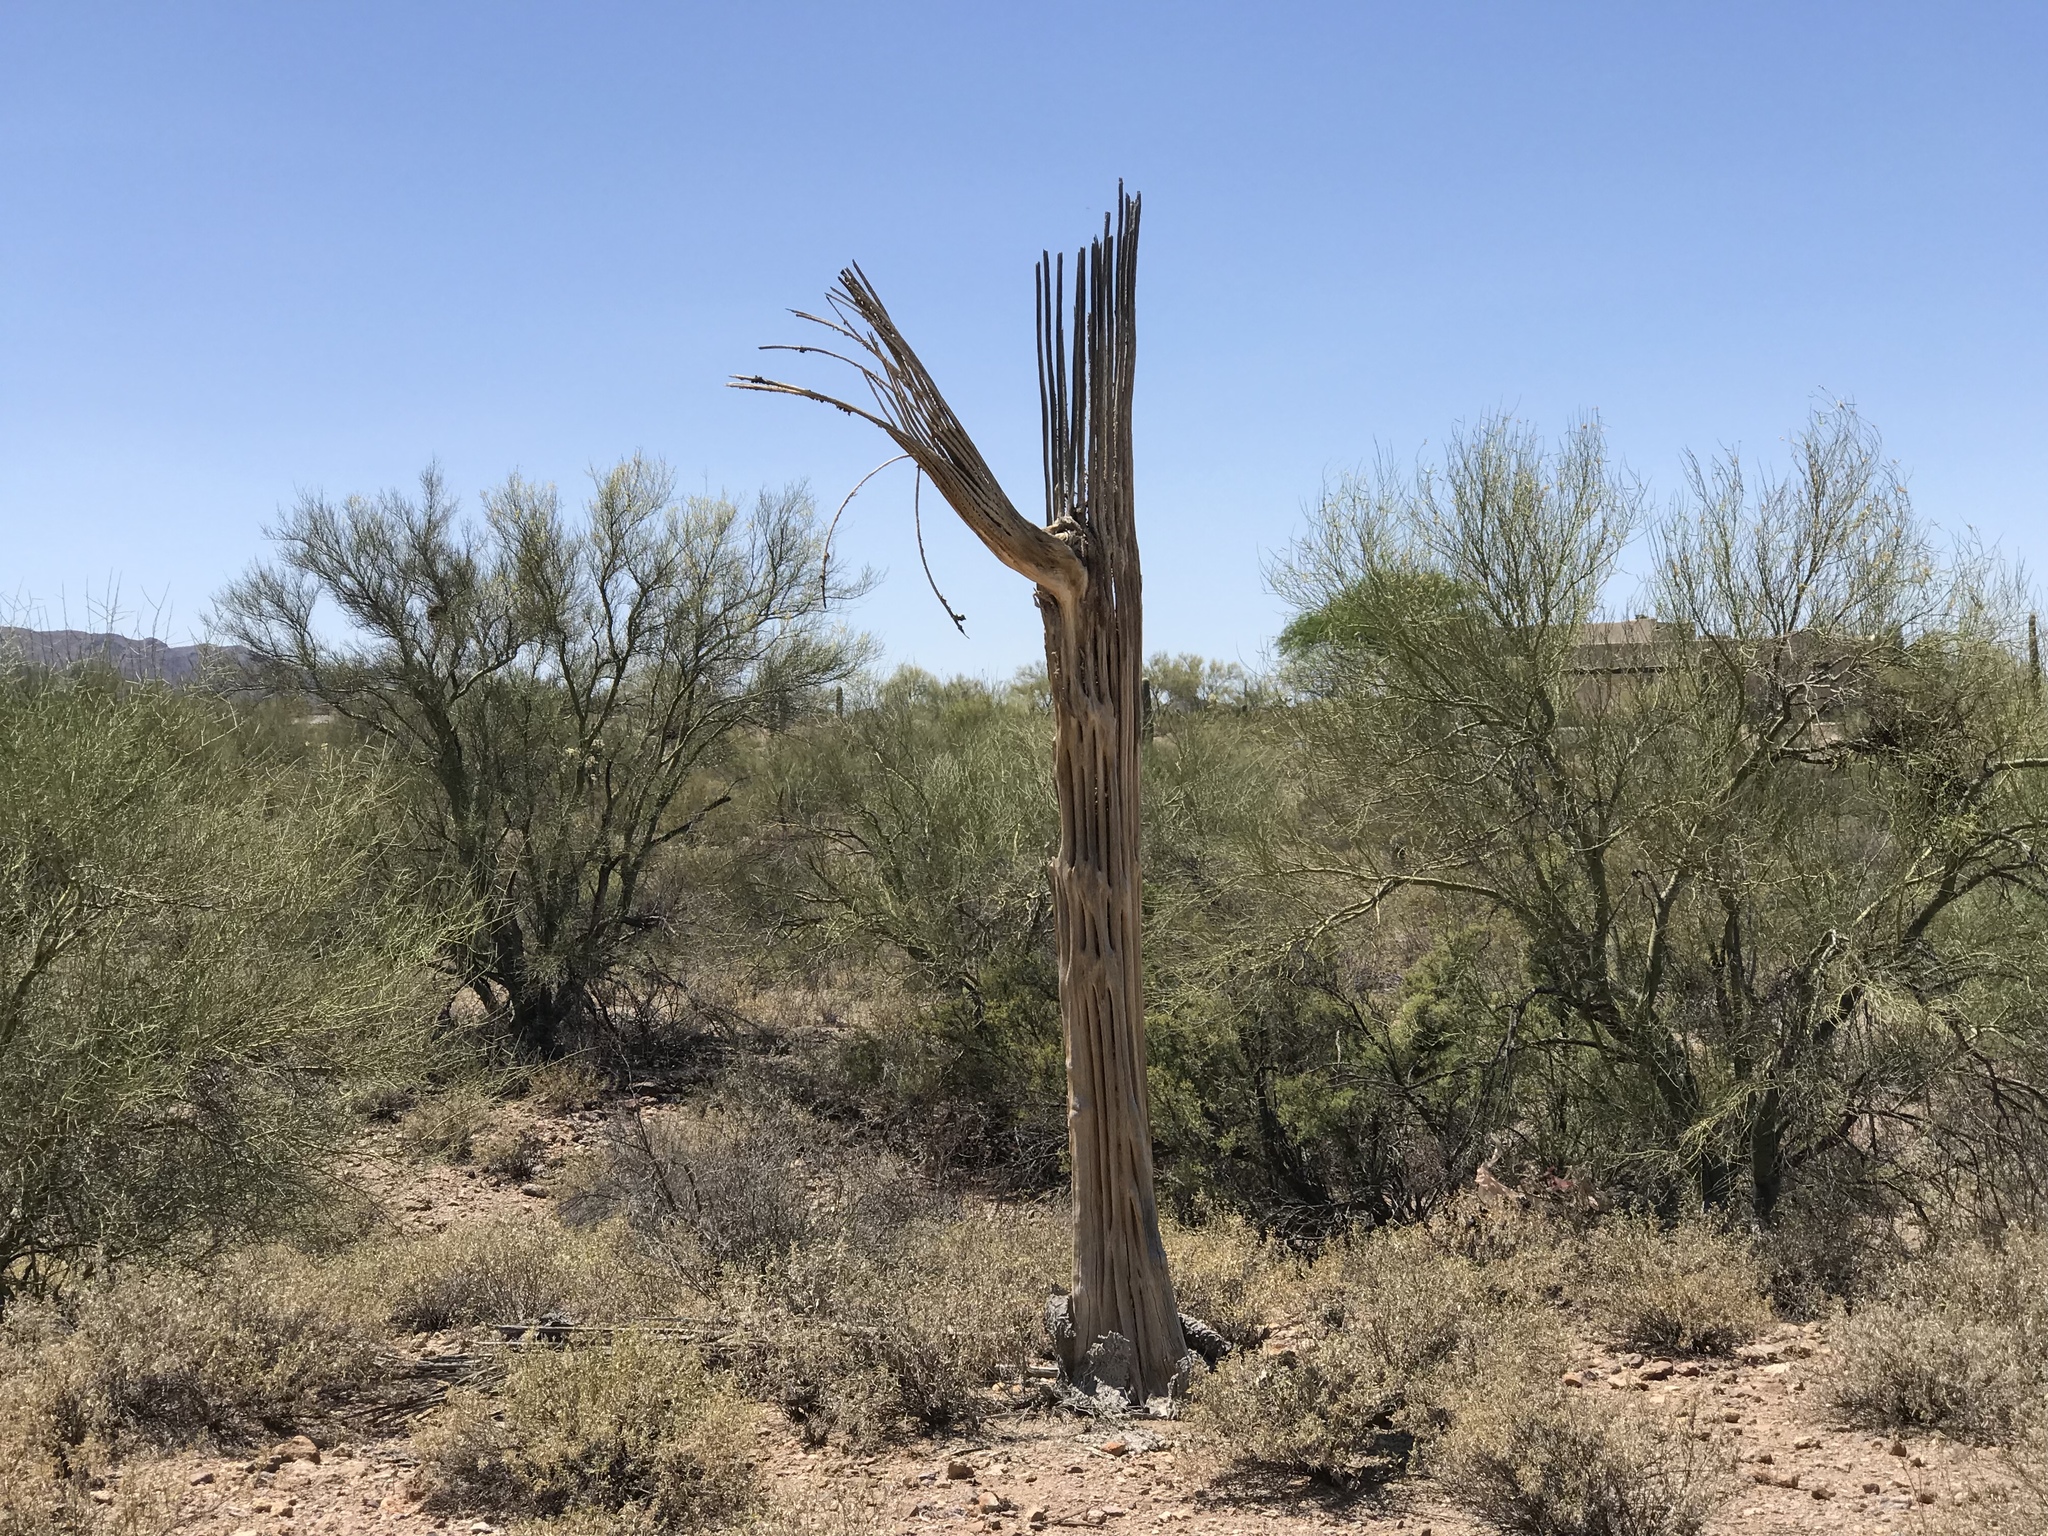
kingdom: Plantae
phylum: Tracheophyta
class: Magnoliopsida
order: Caryophyllales
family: Cactaceae
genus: Carnegiea
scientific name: Carnegiea gigantea
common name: Saguaro
